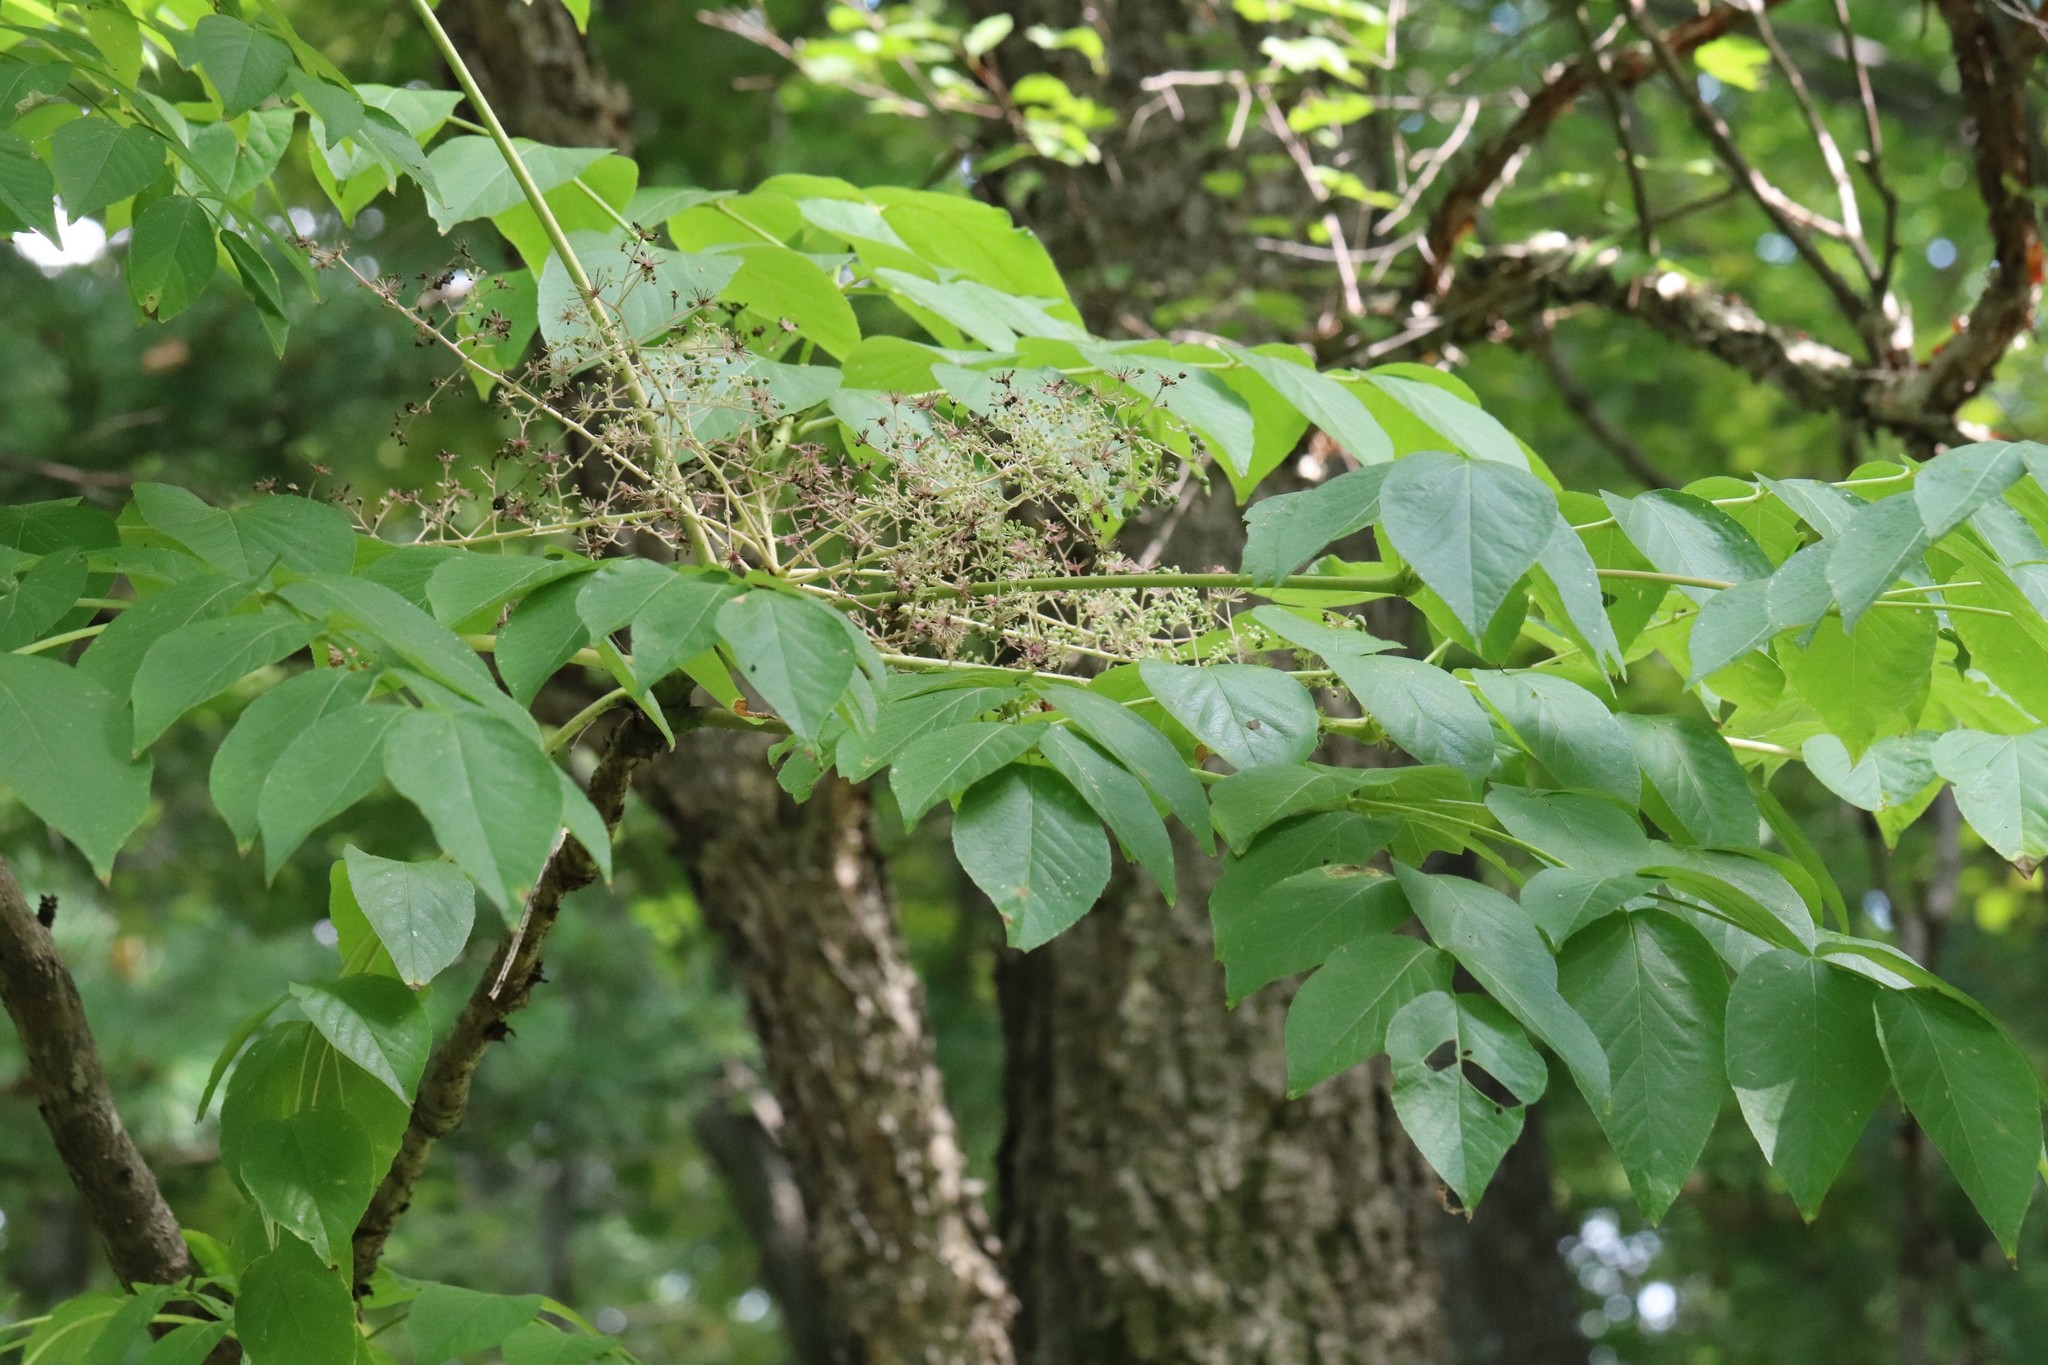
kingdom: Plantae
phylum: Tracheophyta
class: Magnoliopsida
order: Apiales
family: Araliaceae
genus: Aralia
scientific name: Aralia elata
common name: Japanese angelica-tree
